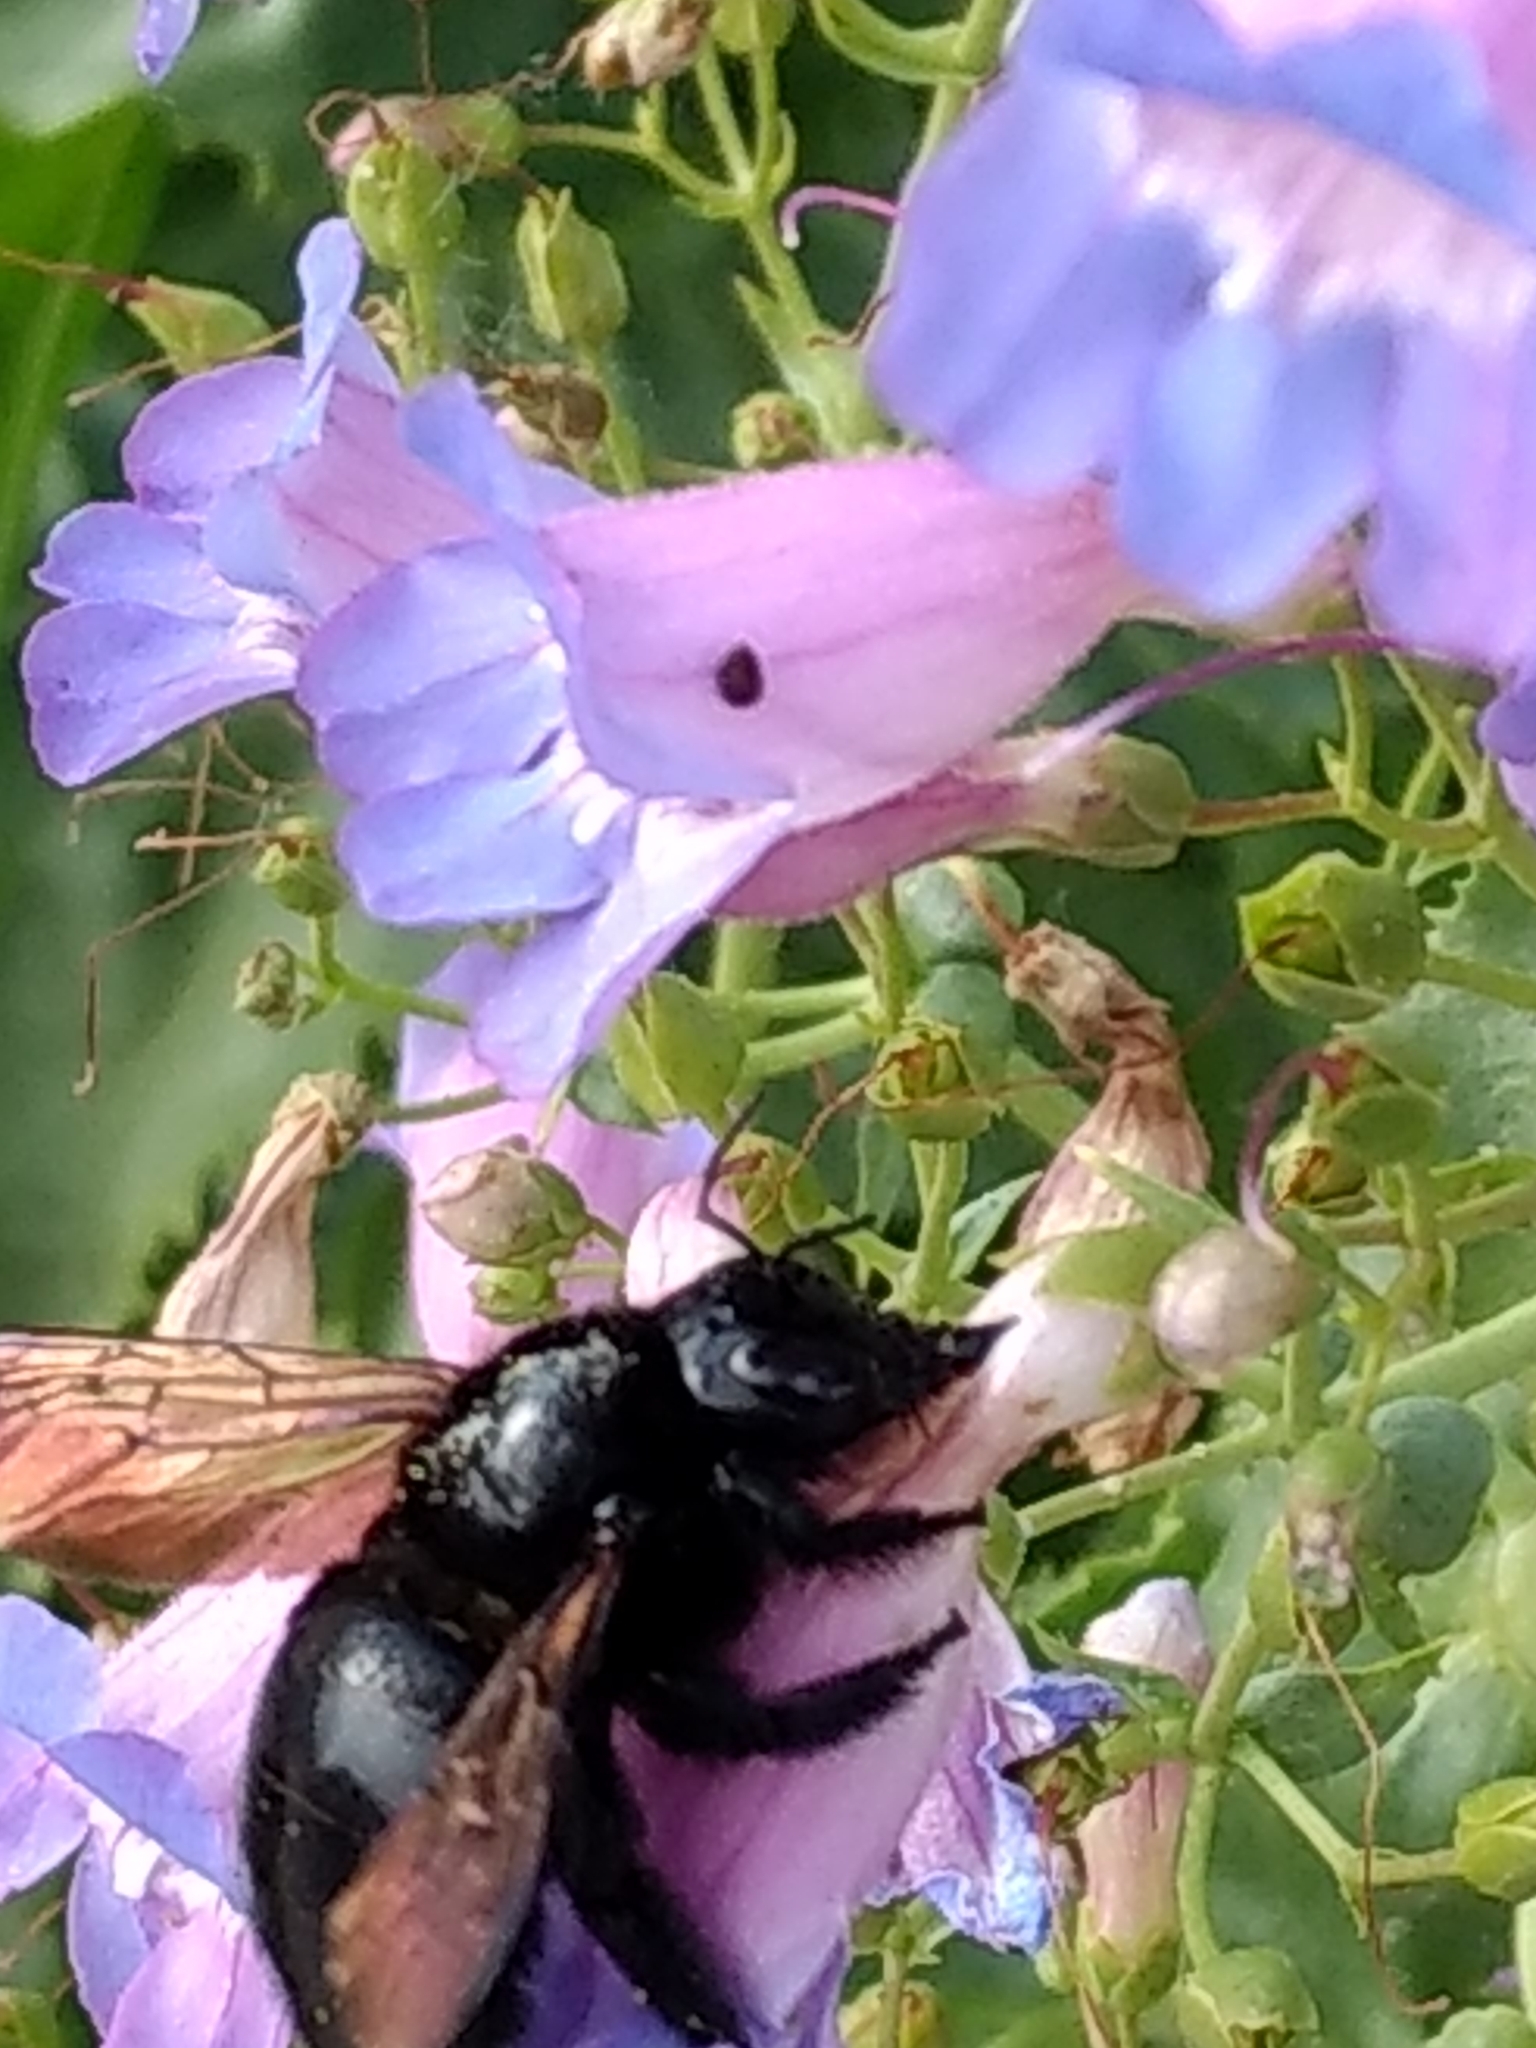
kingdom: Animalia
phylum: Arthropoda
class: Insecta
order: Hymenoptera
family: Apidae
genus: Xylocopa
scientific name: Xylocopa sonorina
